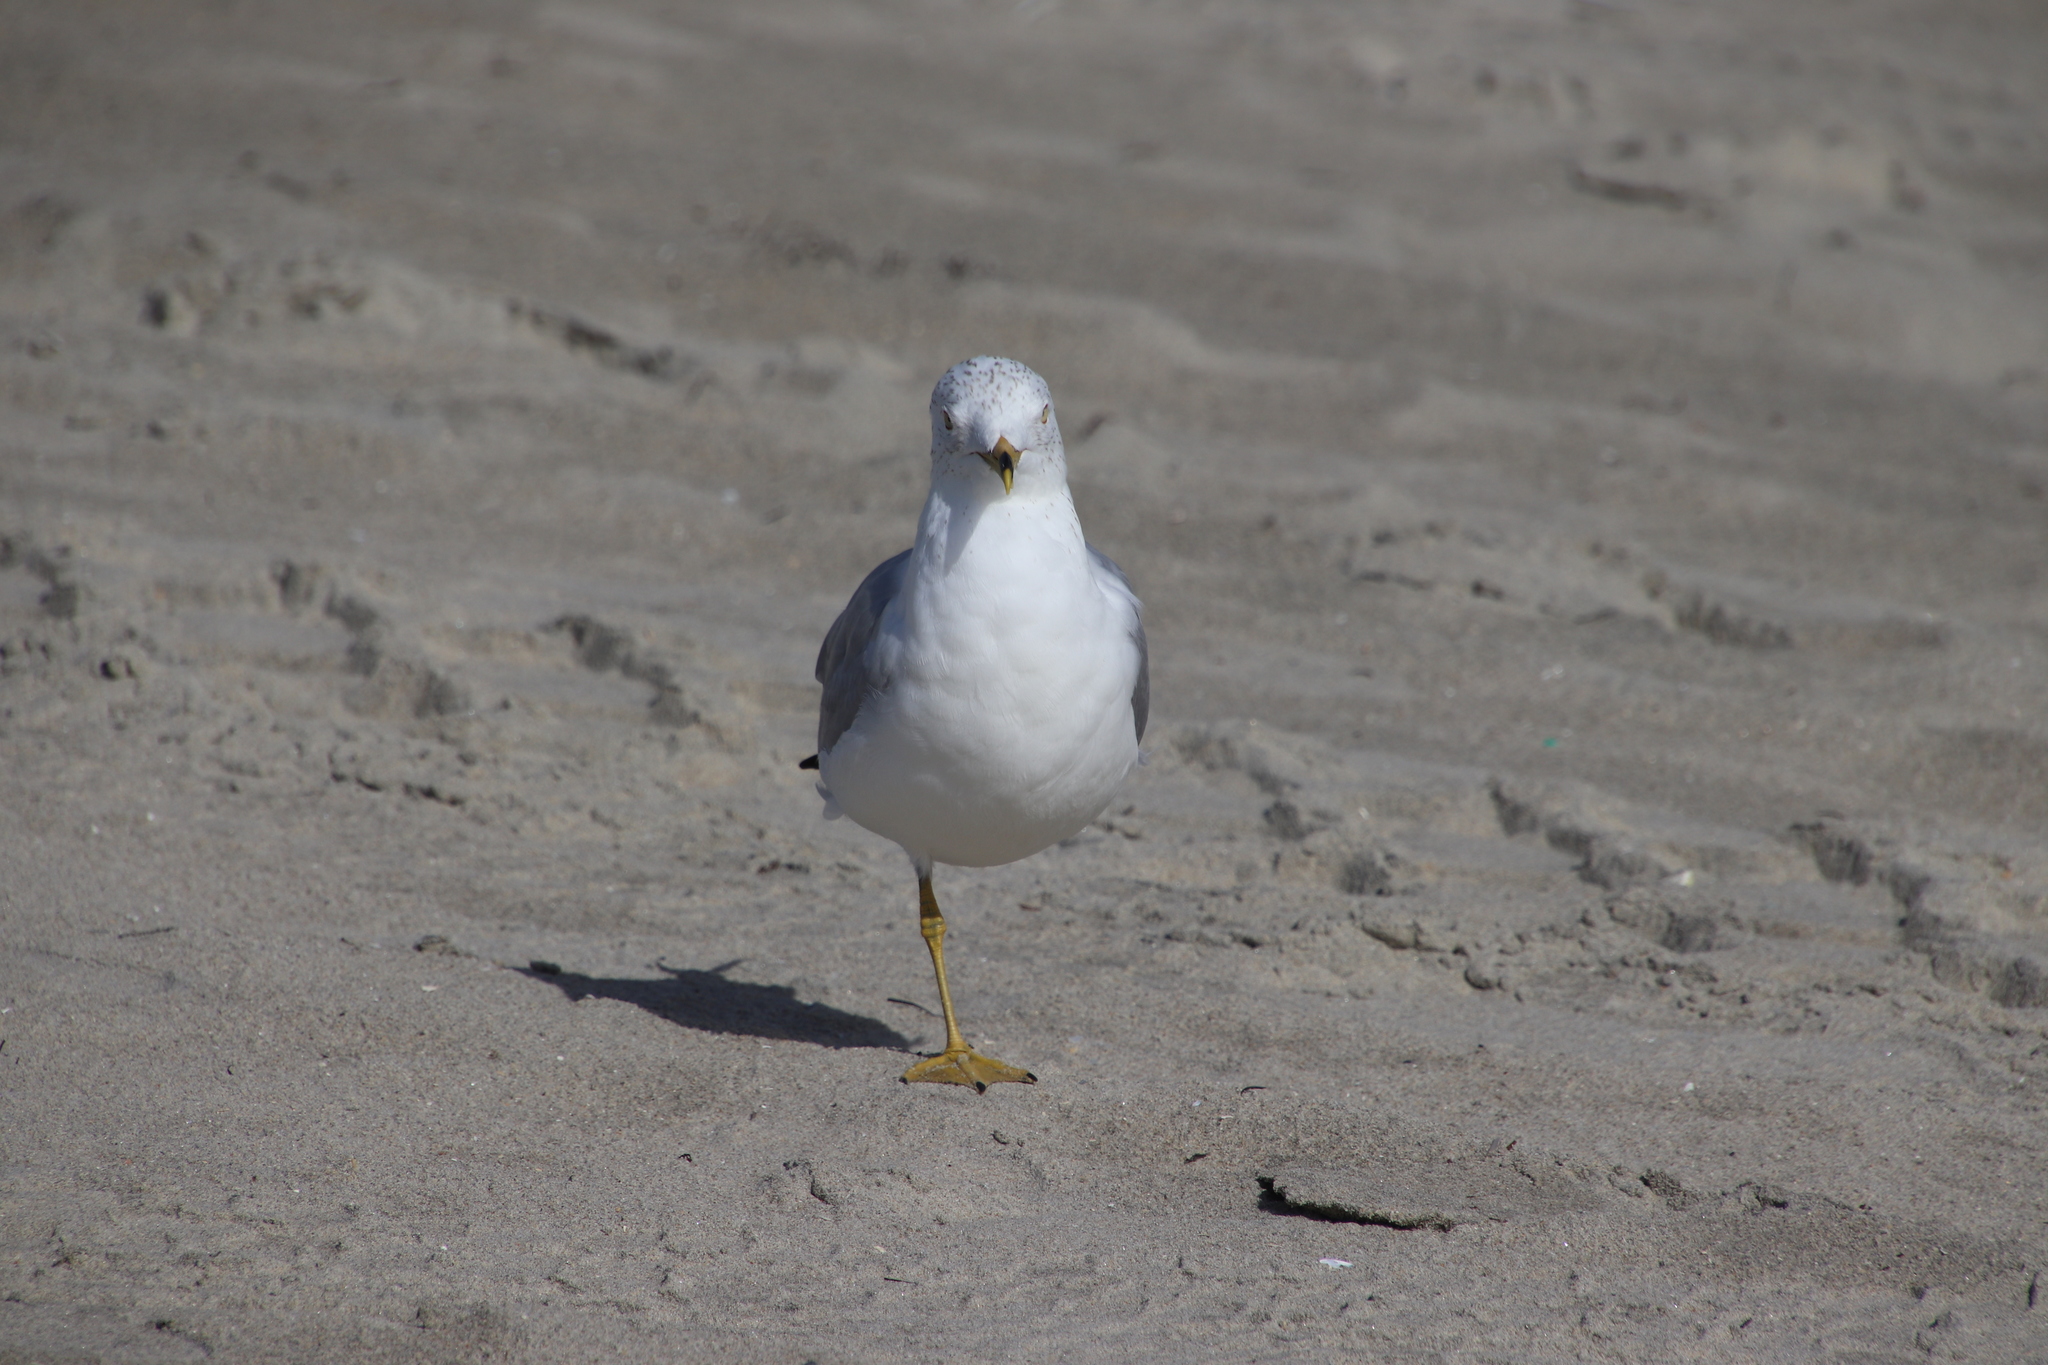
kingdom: Animalia
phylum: Chordata
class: Aves
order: Charadriiformes
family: Laridae
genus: Larus
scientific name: Larus delawarensis
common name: Ring-billed gull
